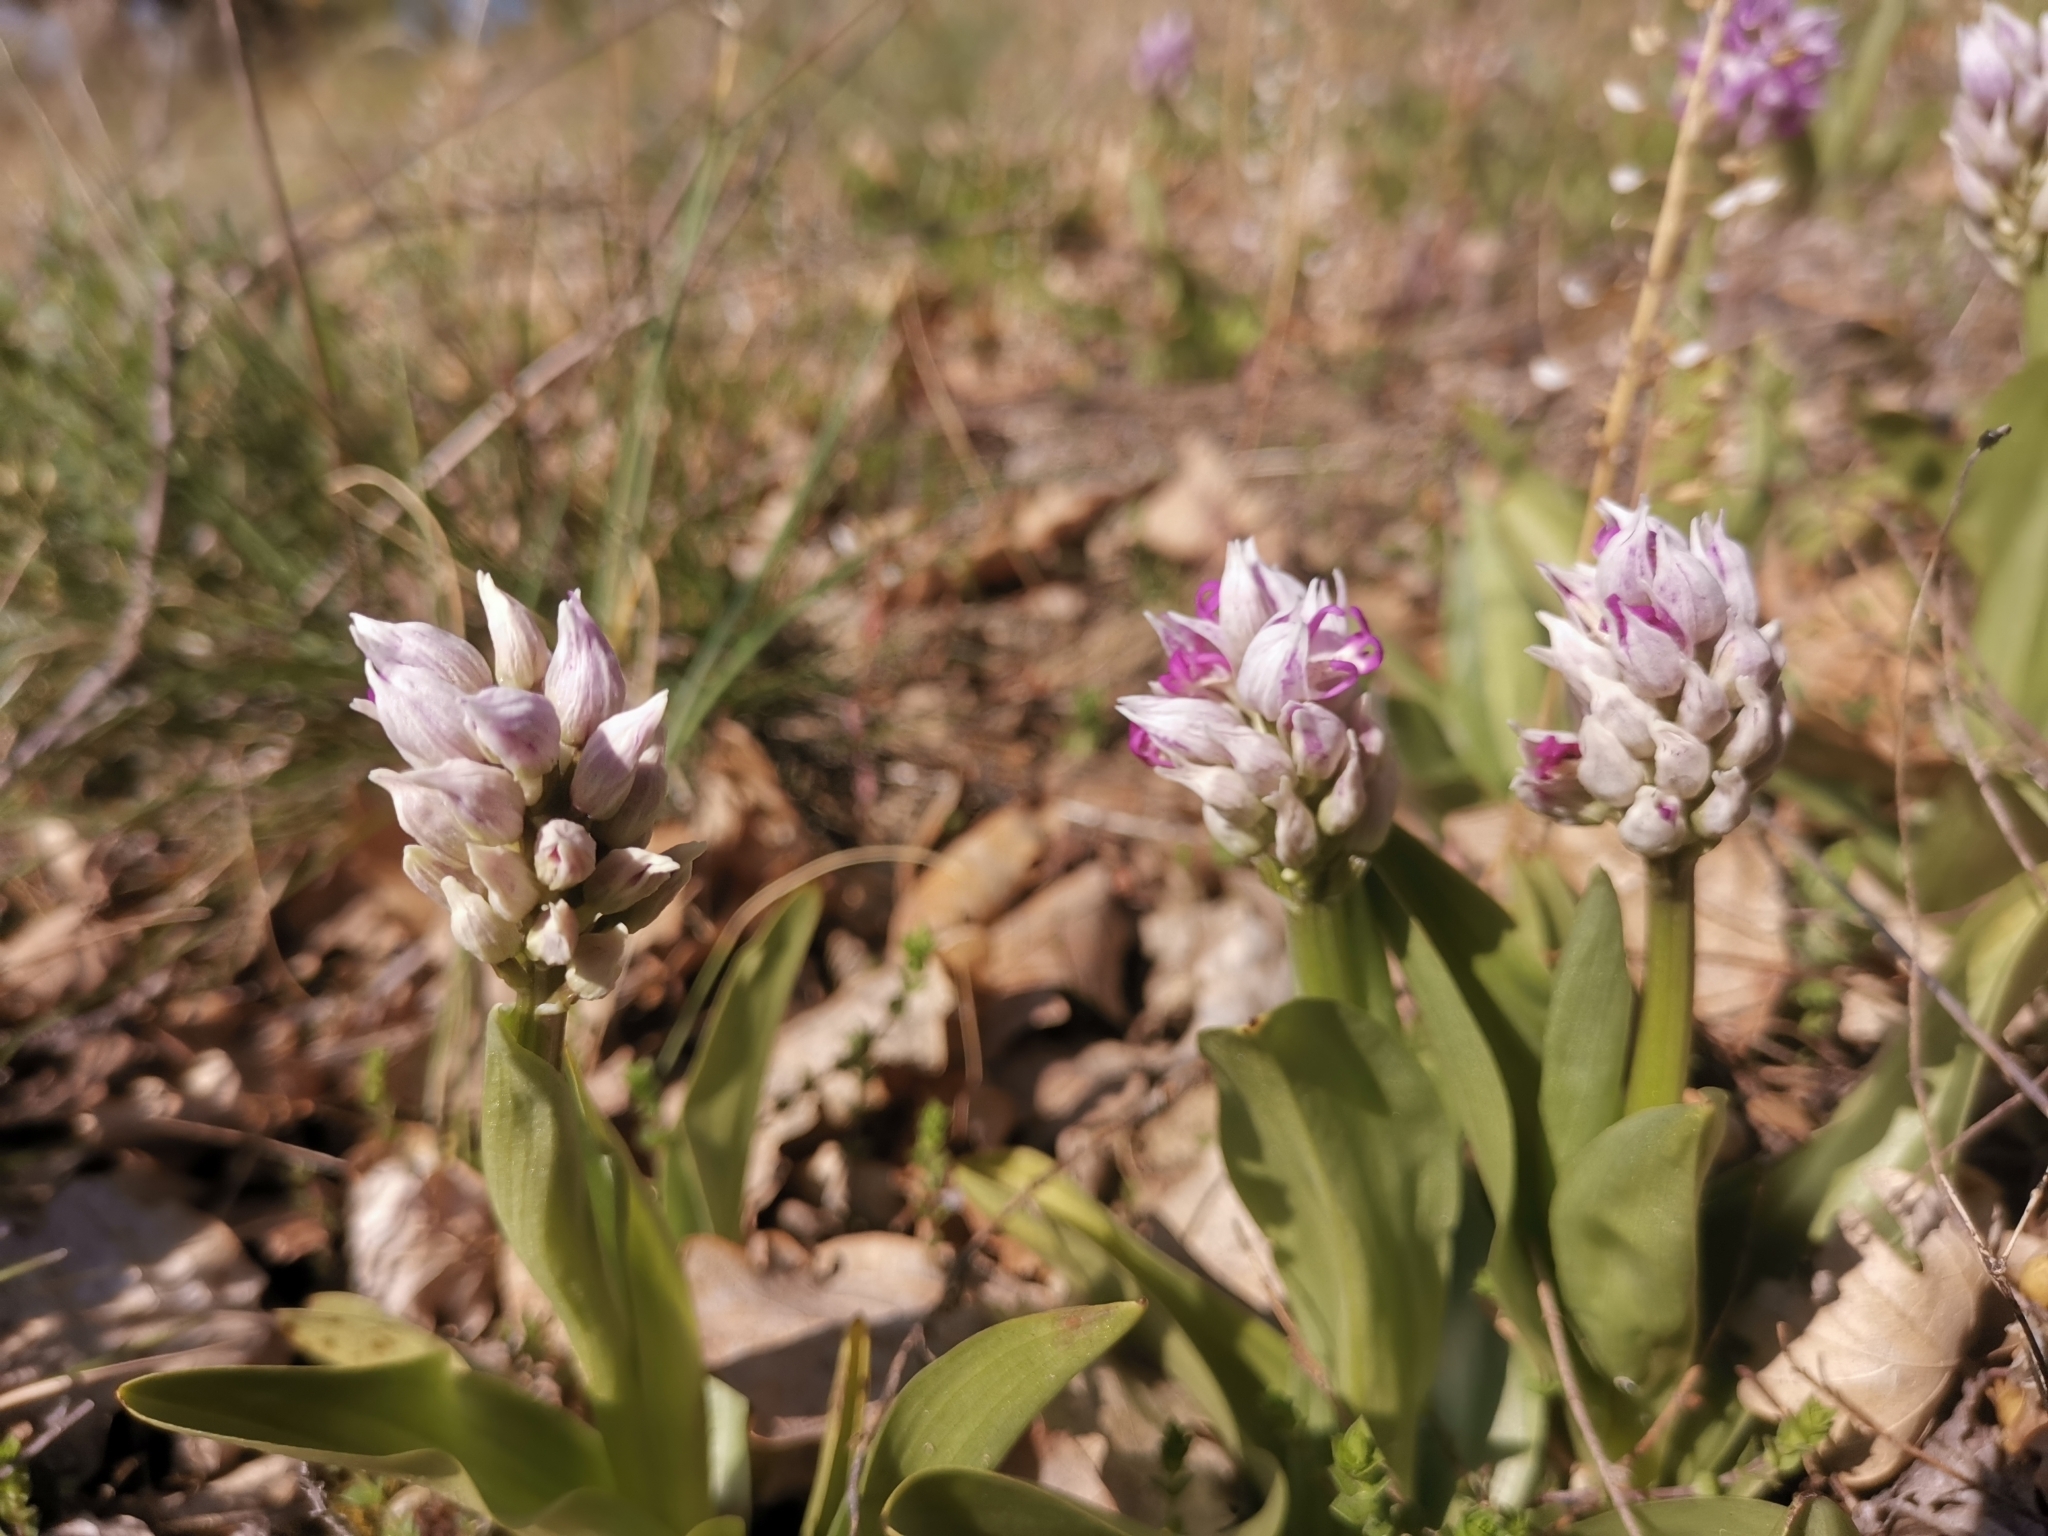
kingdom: Plantae
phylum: Tracheophyta
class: Liliopsida
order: Asparagales
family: Orchidaceae
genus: Orchis
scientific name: Orchis simia
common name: Monkey orchid
